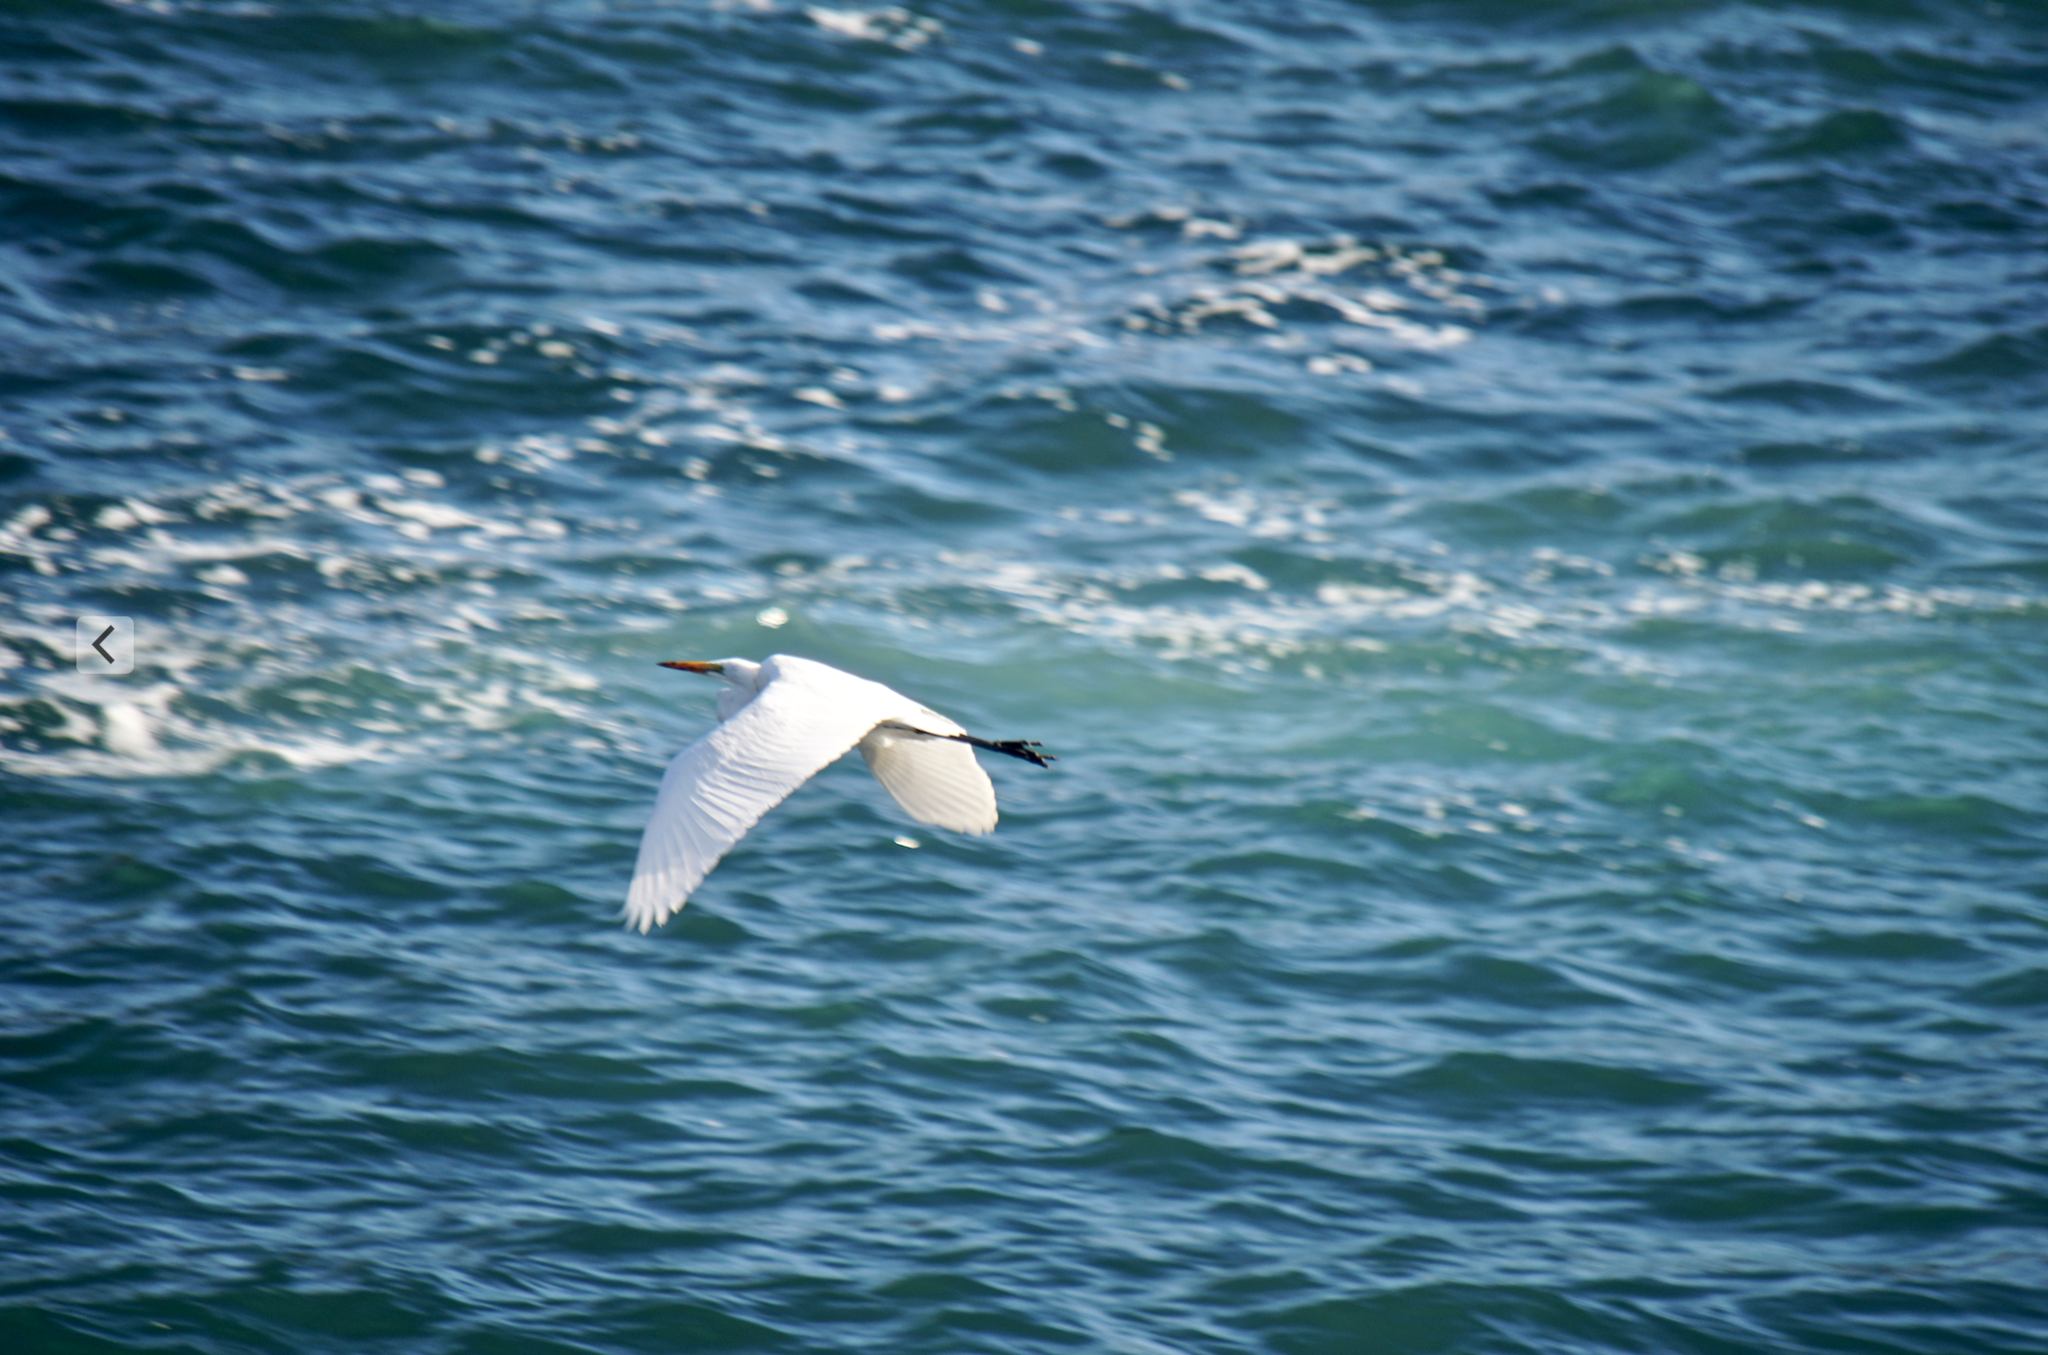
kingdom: Animalia
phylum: Chordata
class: Aves
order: Pelecaniformes
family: Ardeidae
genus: Ardea
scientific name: Ardea alba
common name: Great egret
